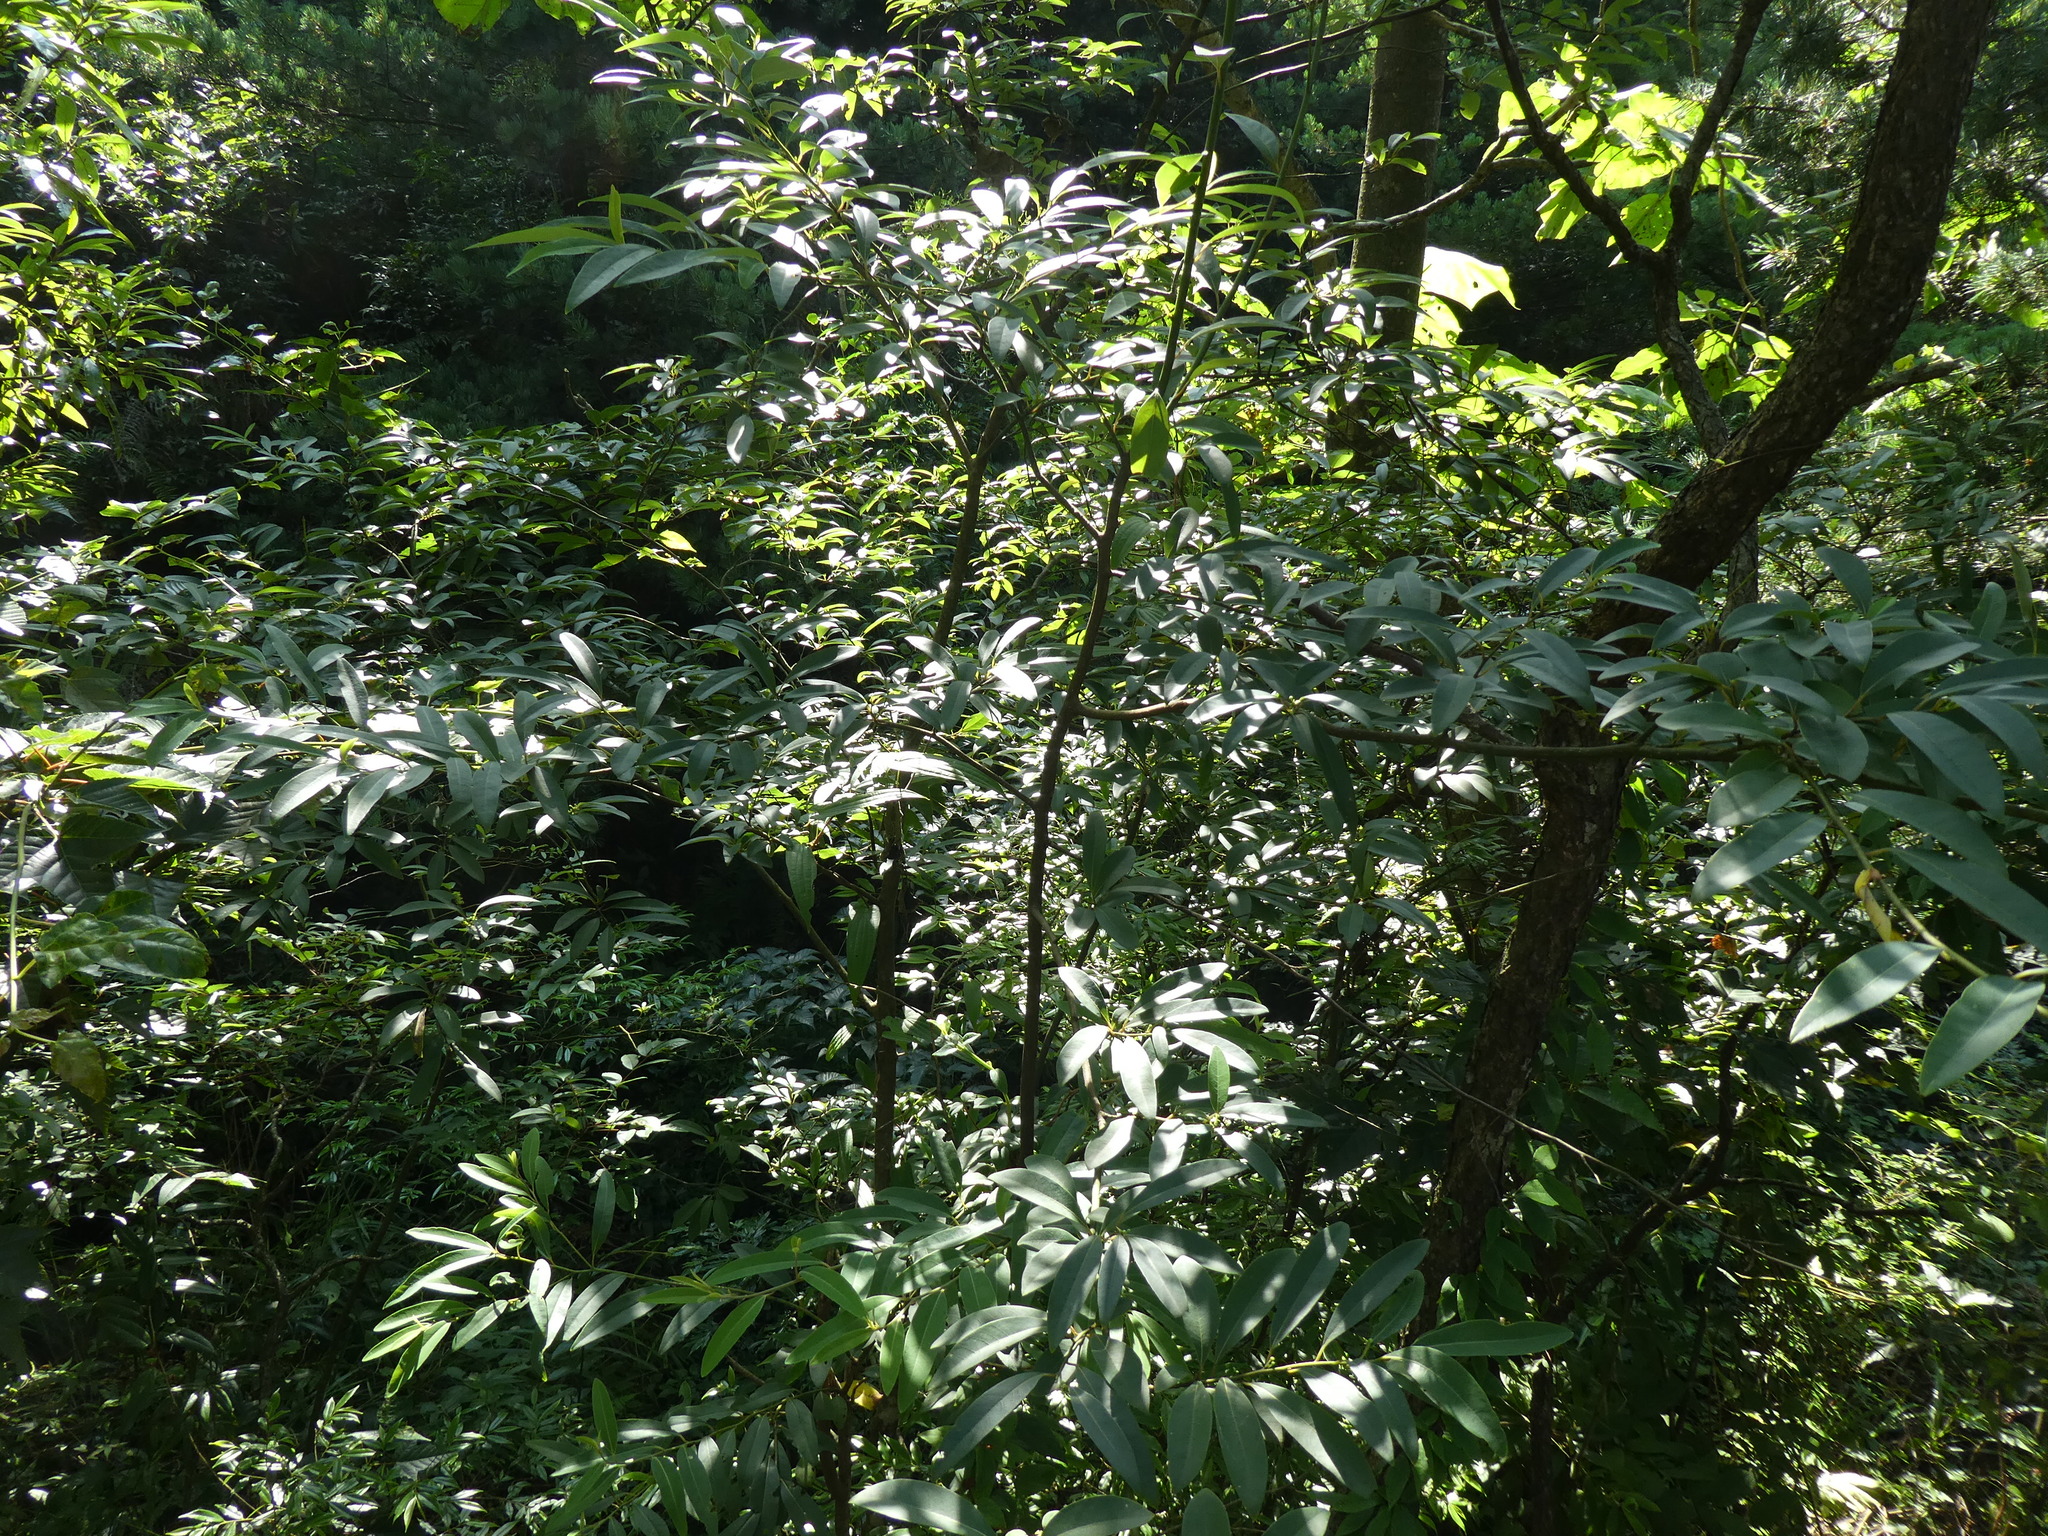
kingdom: Plantae
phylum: Tracheophyta
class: Magnoliopsida
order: Laurales
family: Lauraceae
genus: Litsea
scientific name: Litsea cubeba
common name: Mountain-pepper
